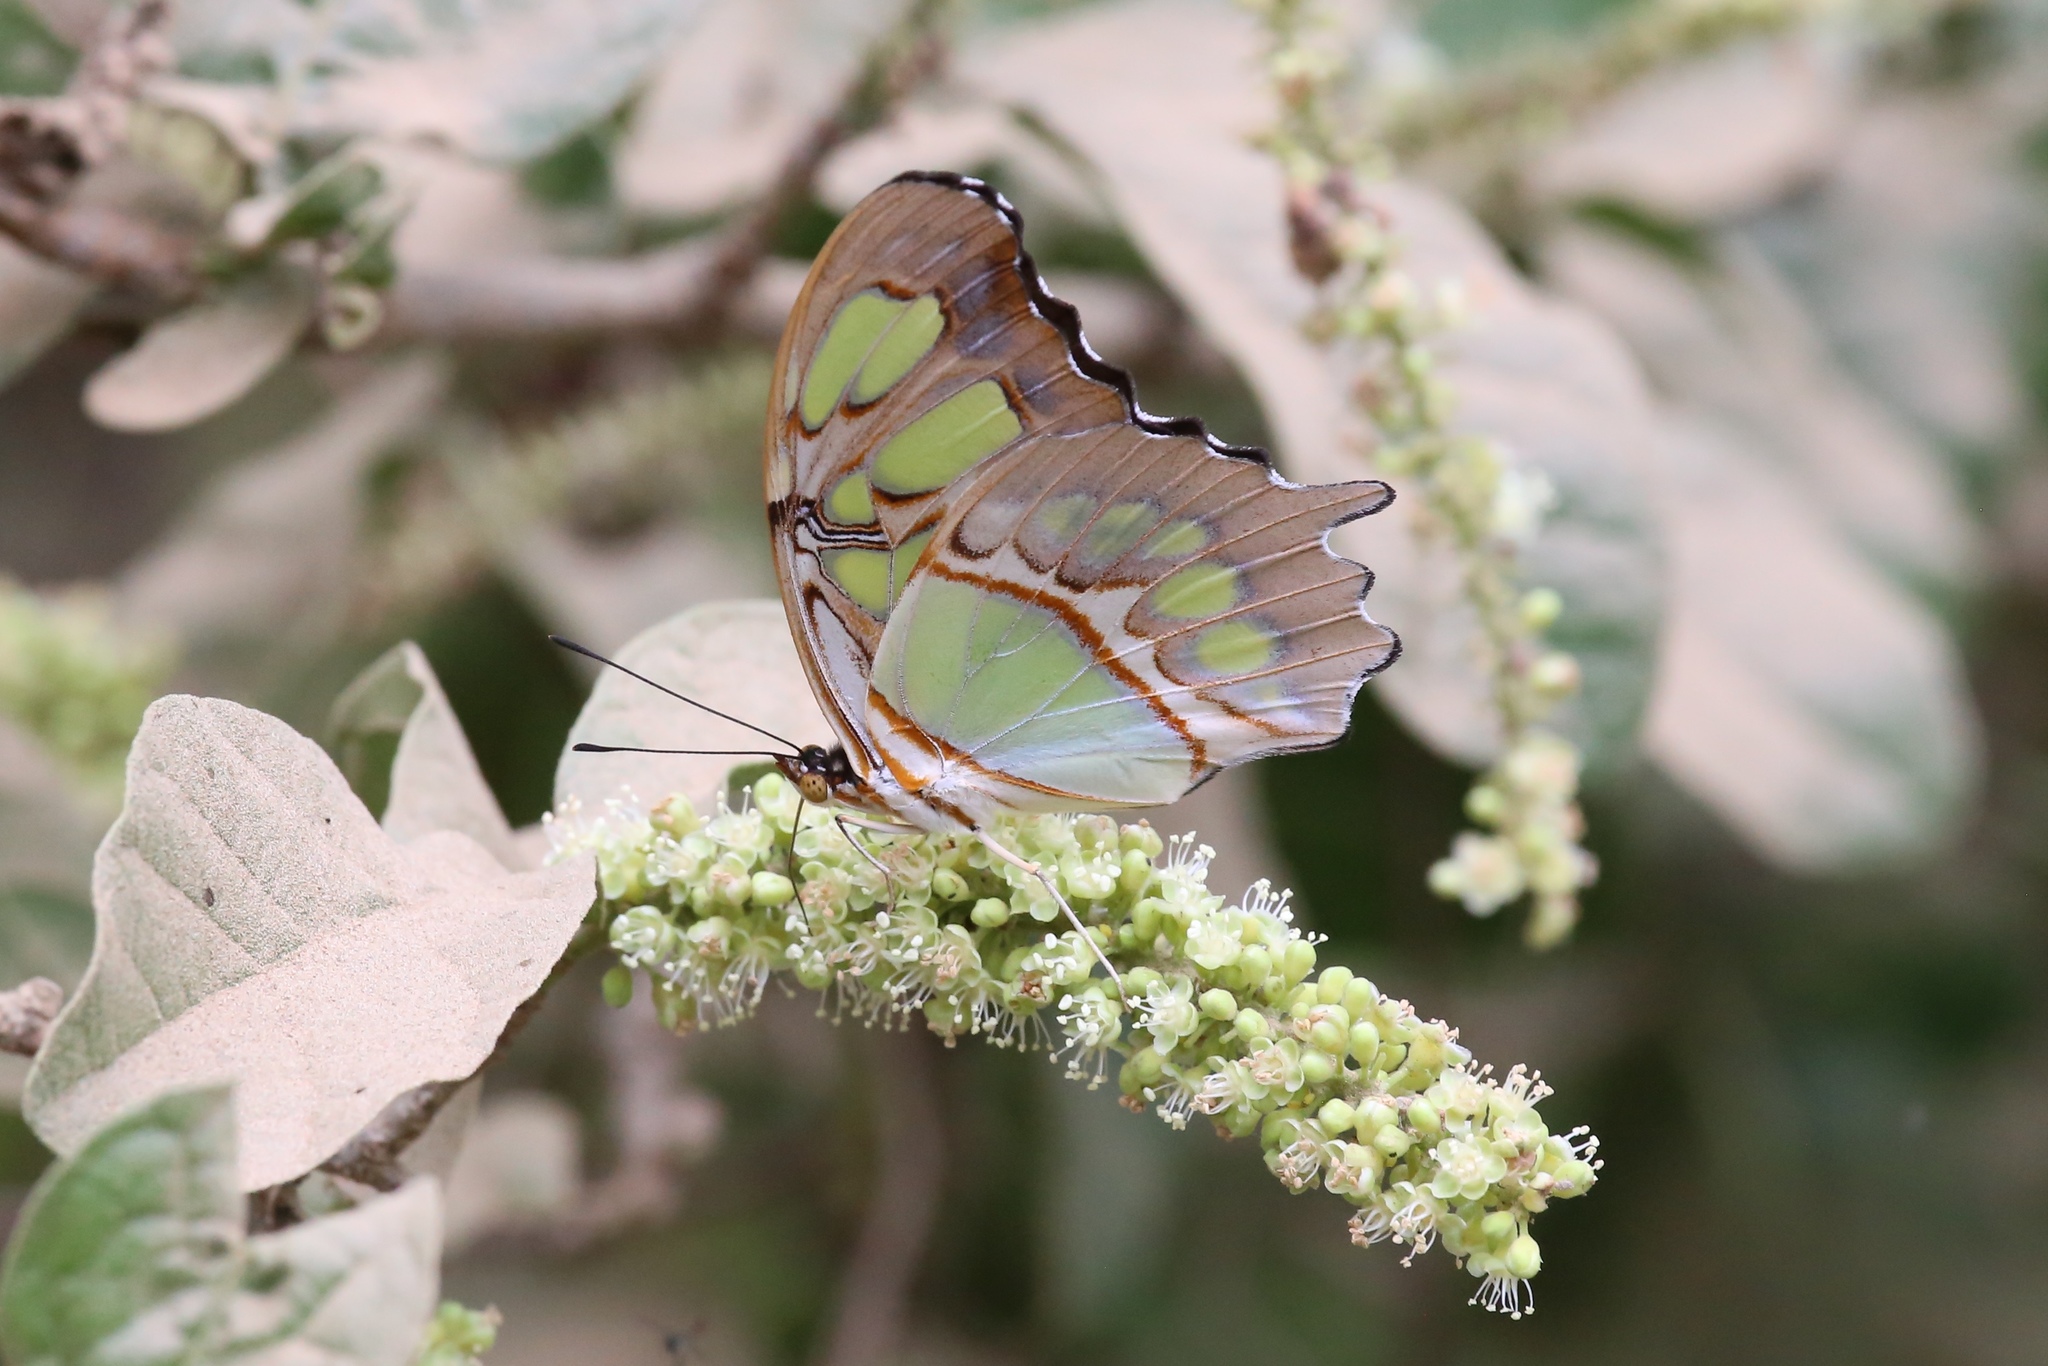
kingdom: Animalia
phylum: Arthropoda
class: Insecta
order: Lepidoptera
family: Nymphalidae
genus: Siproeta
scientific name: Siproeta stelenes
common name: Malachite
